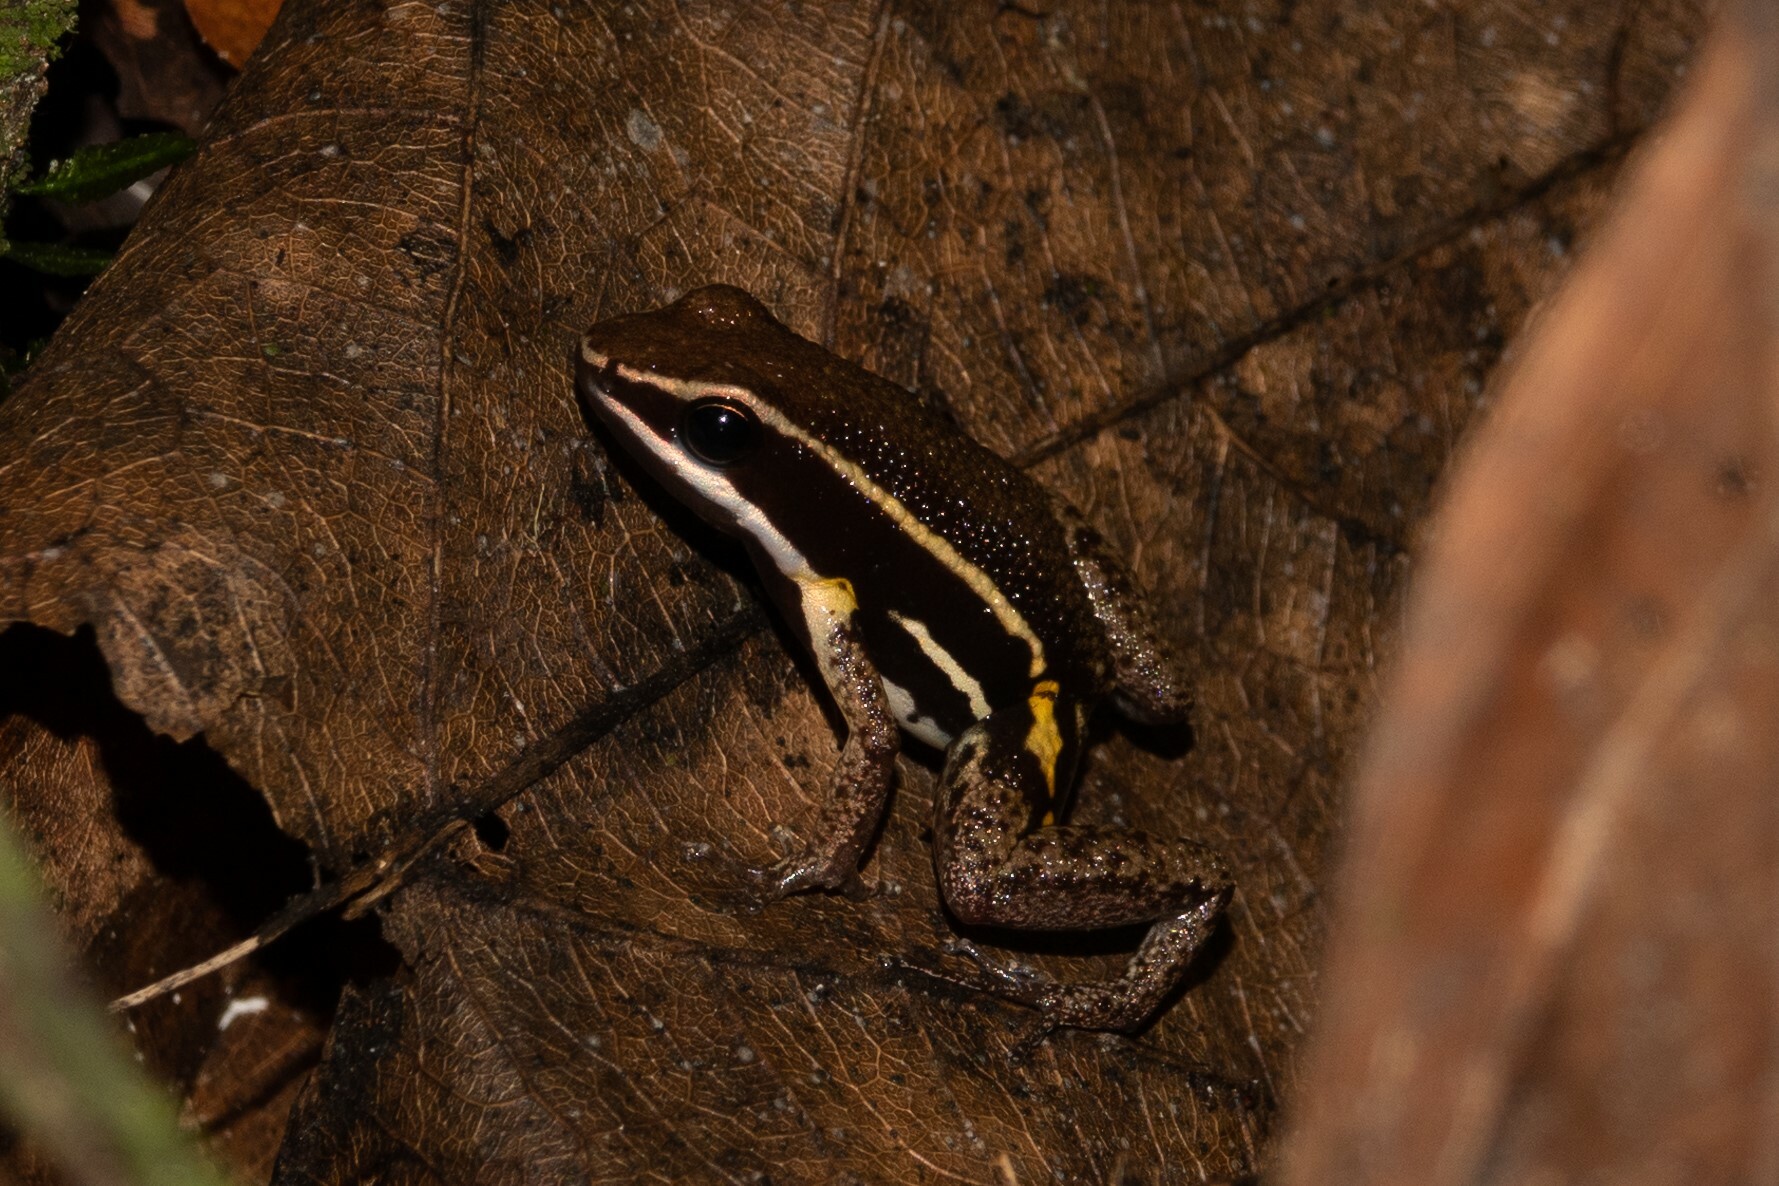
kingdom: Animalia
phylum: Chordata
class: Amphibia
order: Anura
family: Aromobatidae
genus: Allobates
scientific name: Allobates femoralis
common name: Brilliant-thighed poison frog
